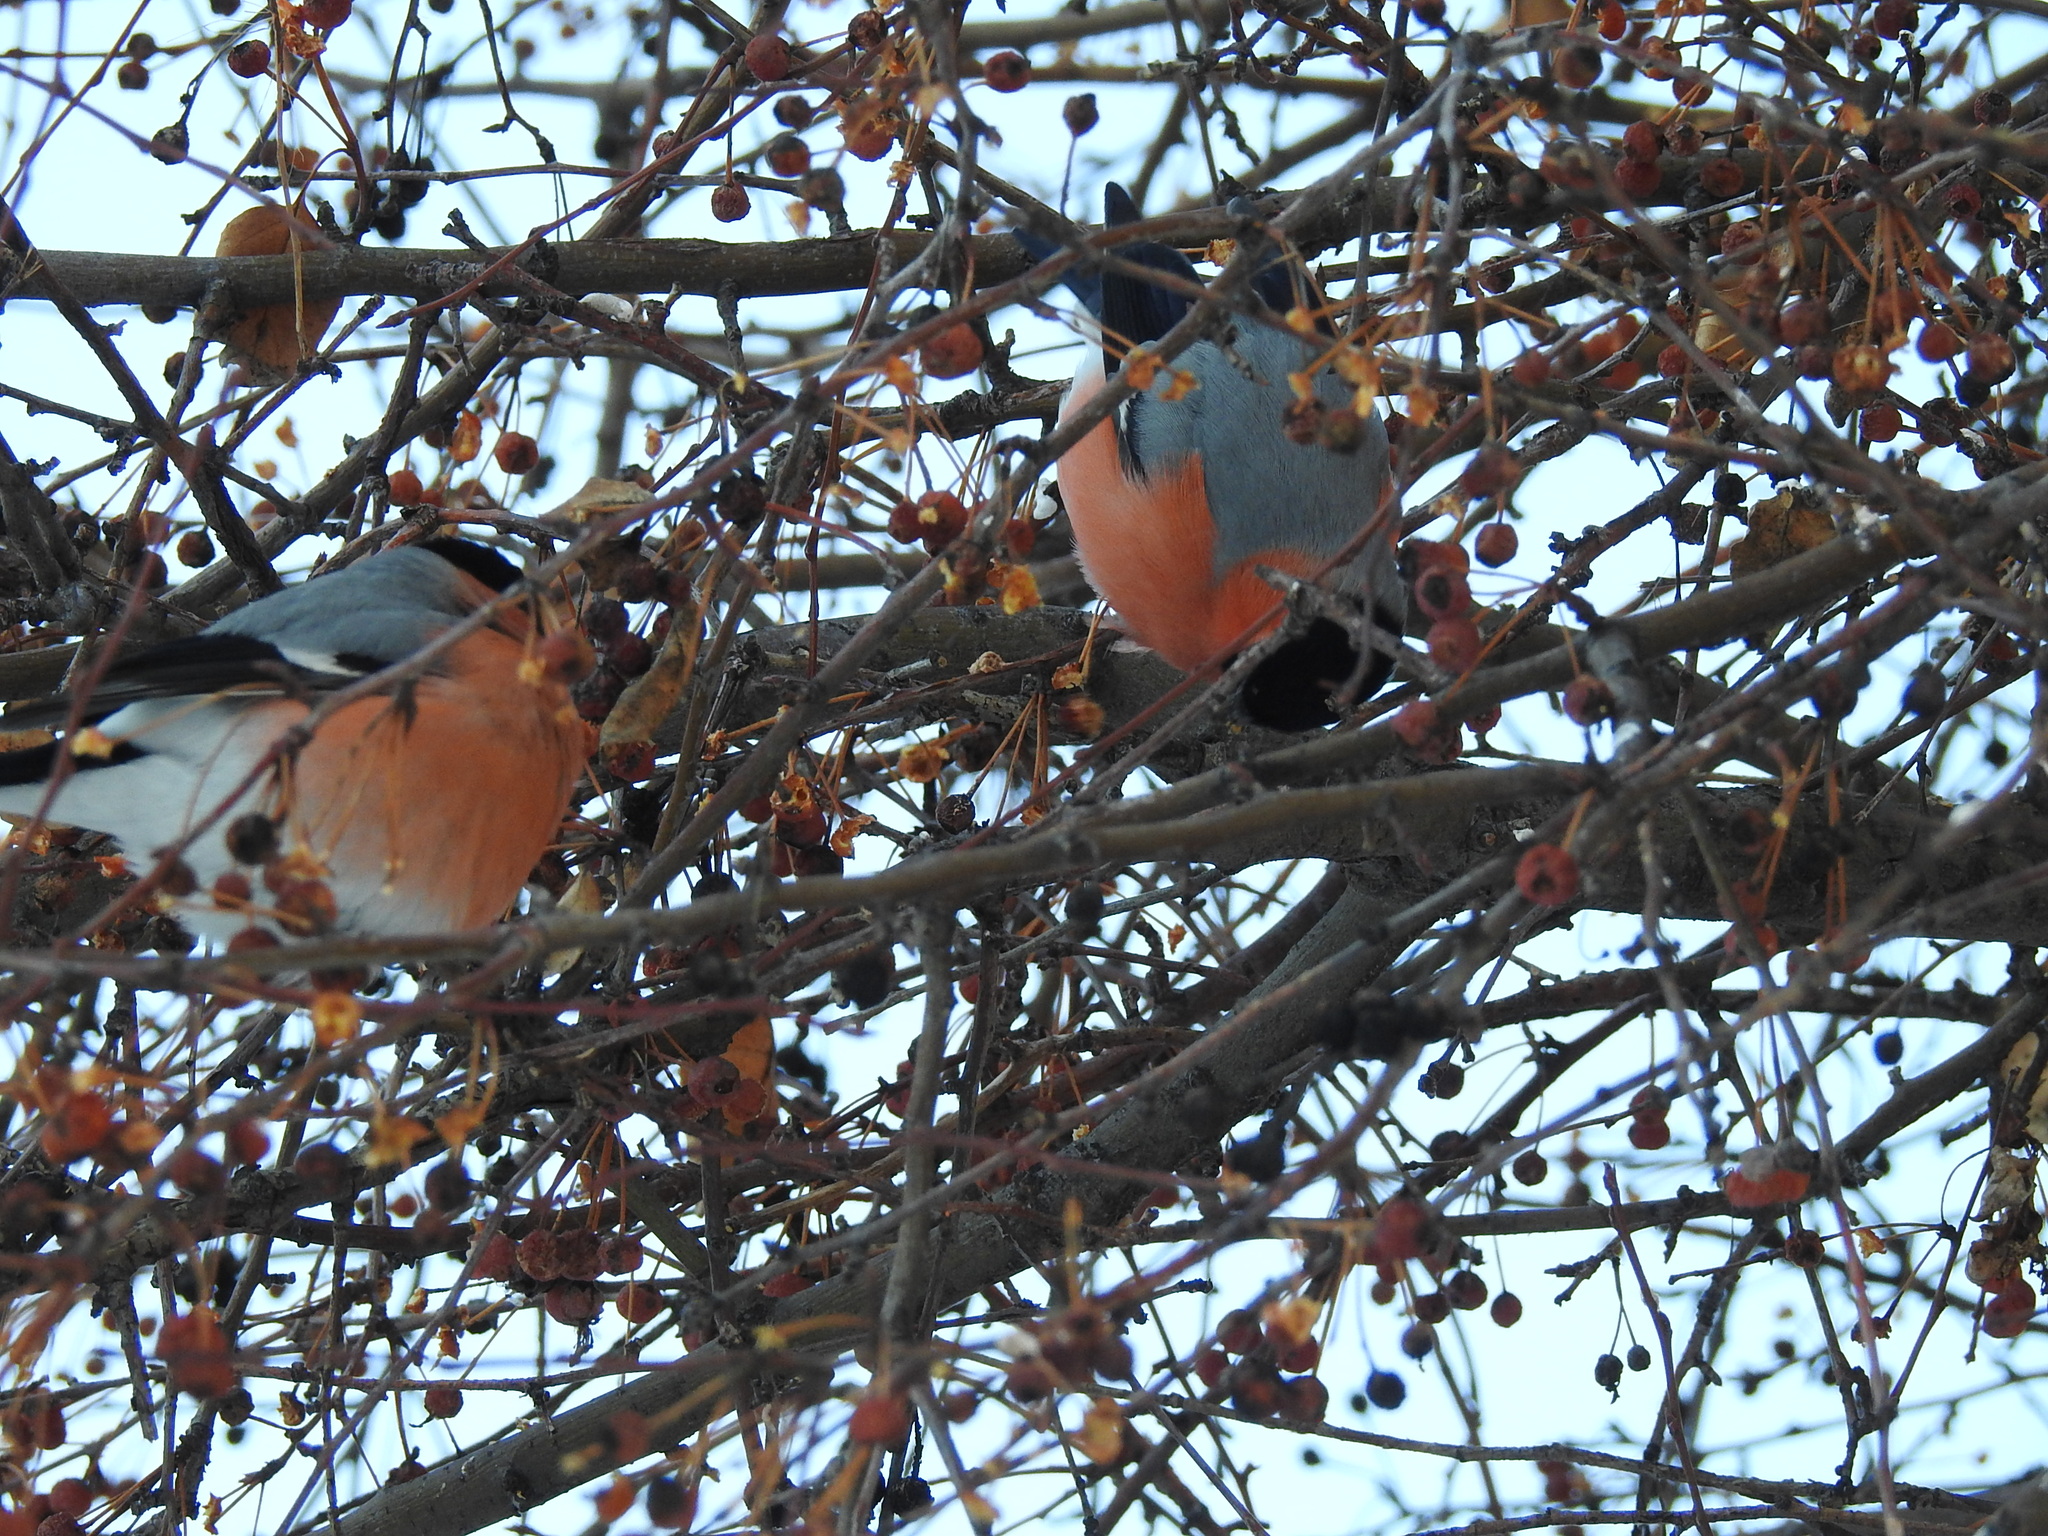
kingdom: Animalia
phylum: Chordata
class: Aves
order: Passeriformes
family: Fringillidae
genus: Pyrrhula
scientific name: Pyrrhula pyrrhula
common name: Eurasian bullfinch
